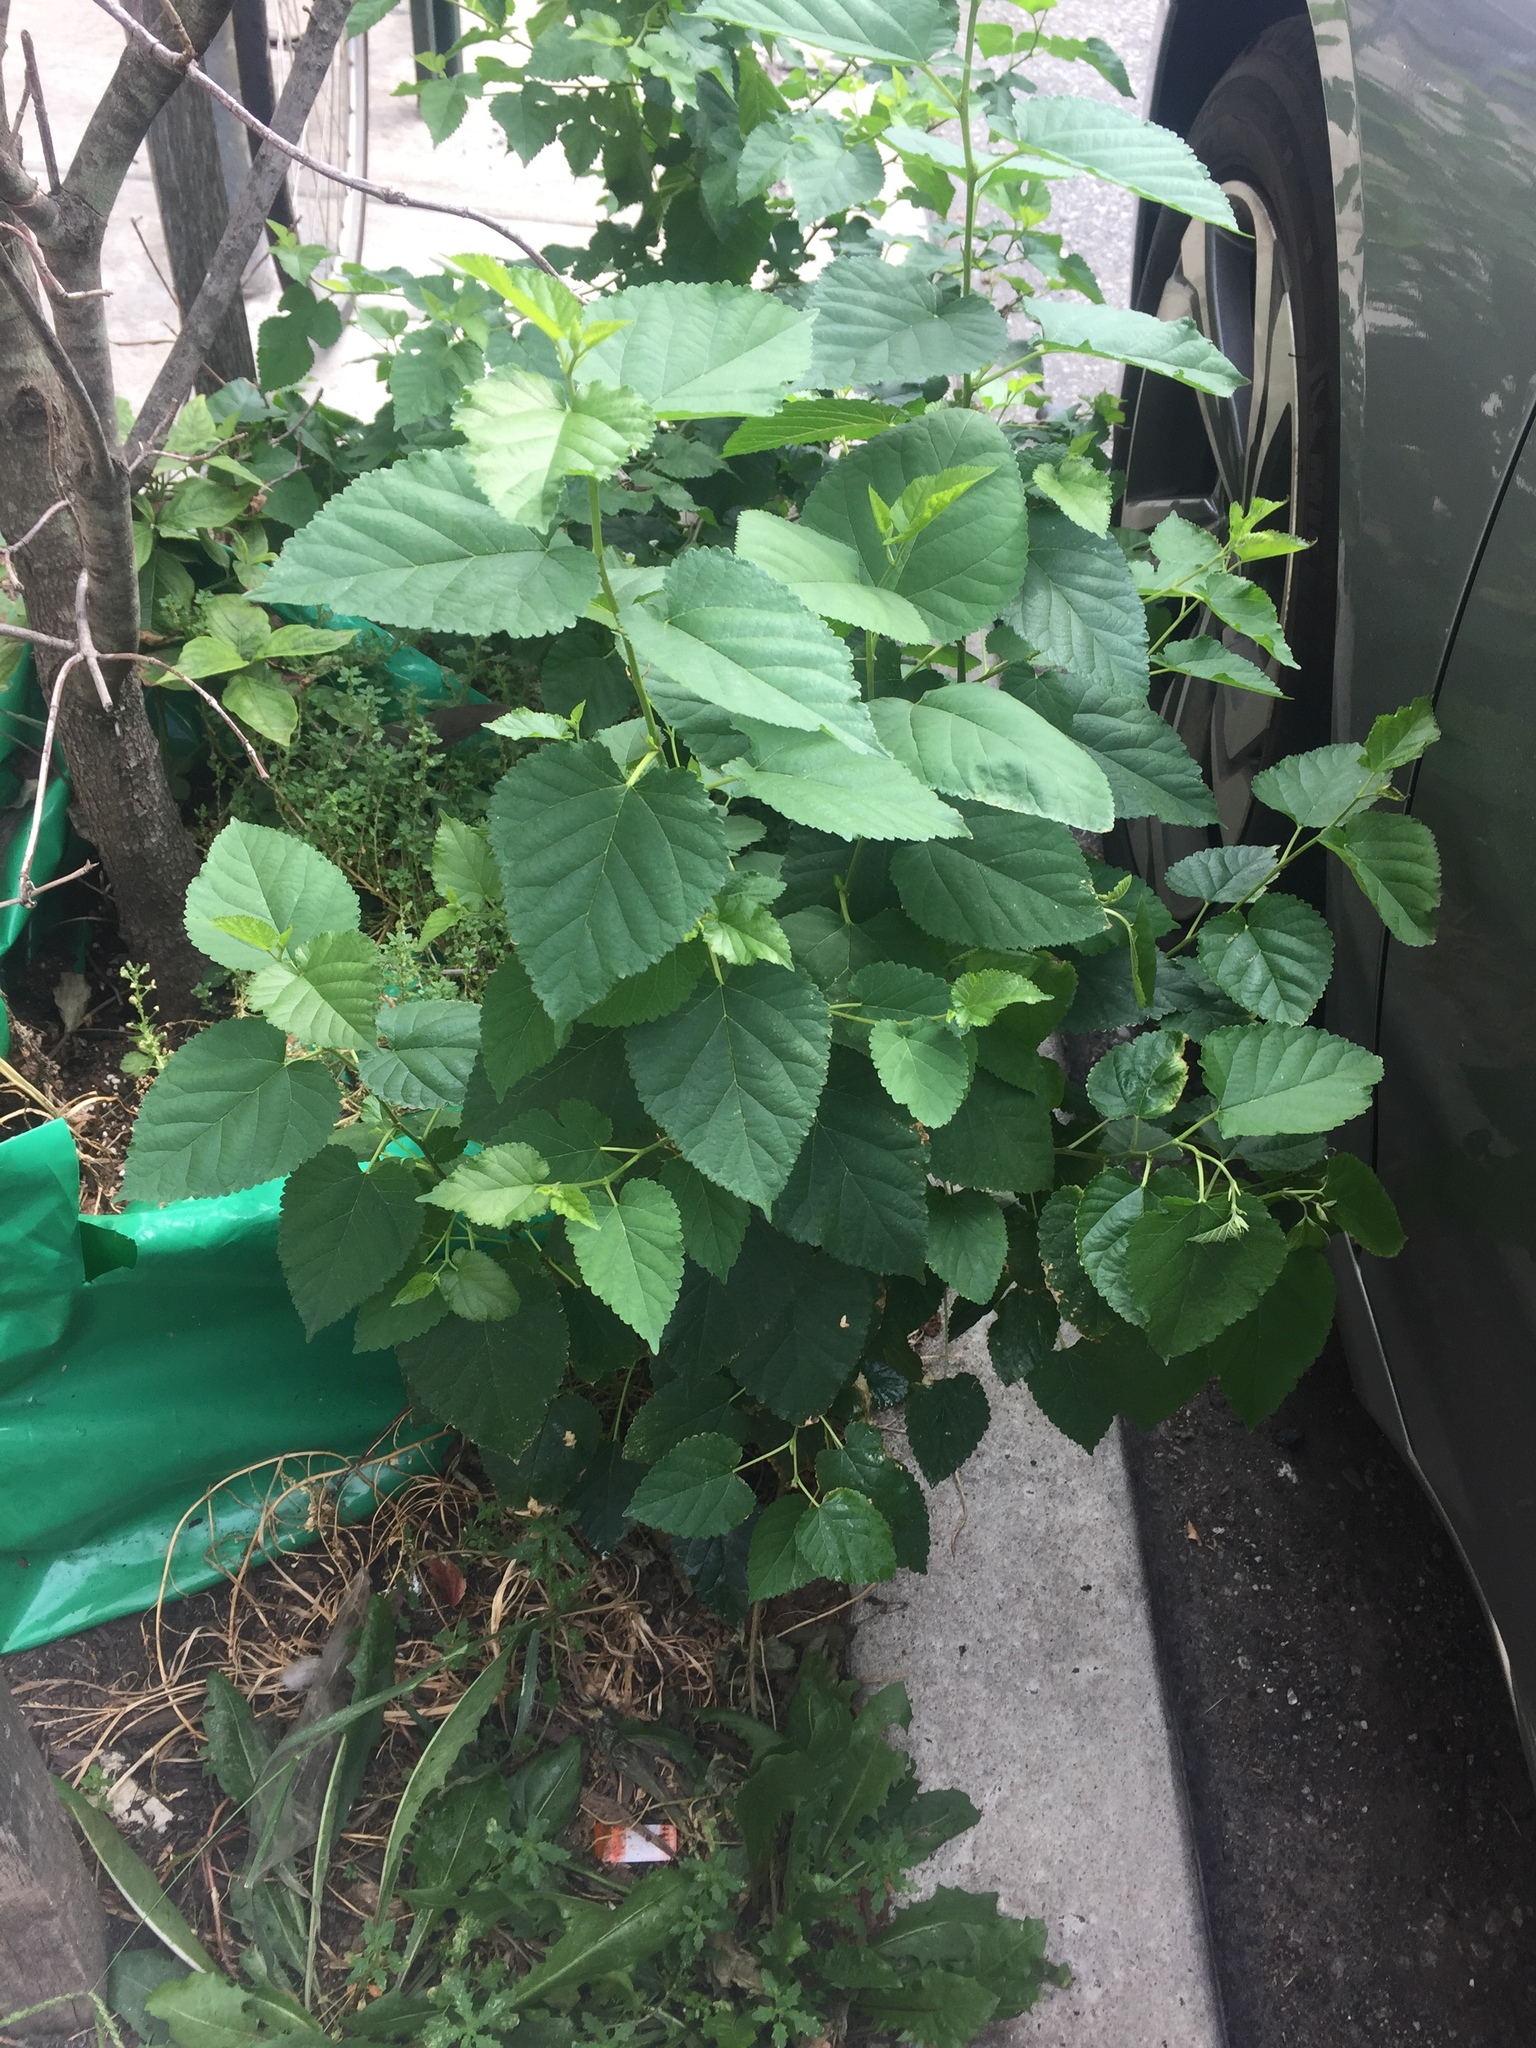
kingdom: Plantae
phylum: Tracheophyta
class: Magnoliopsida
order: Rosales
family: Moraceae
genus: Morus
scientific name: Morus alba
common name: White mulberry
